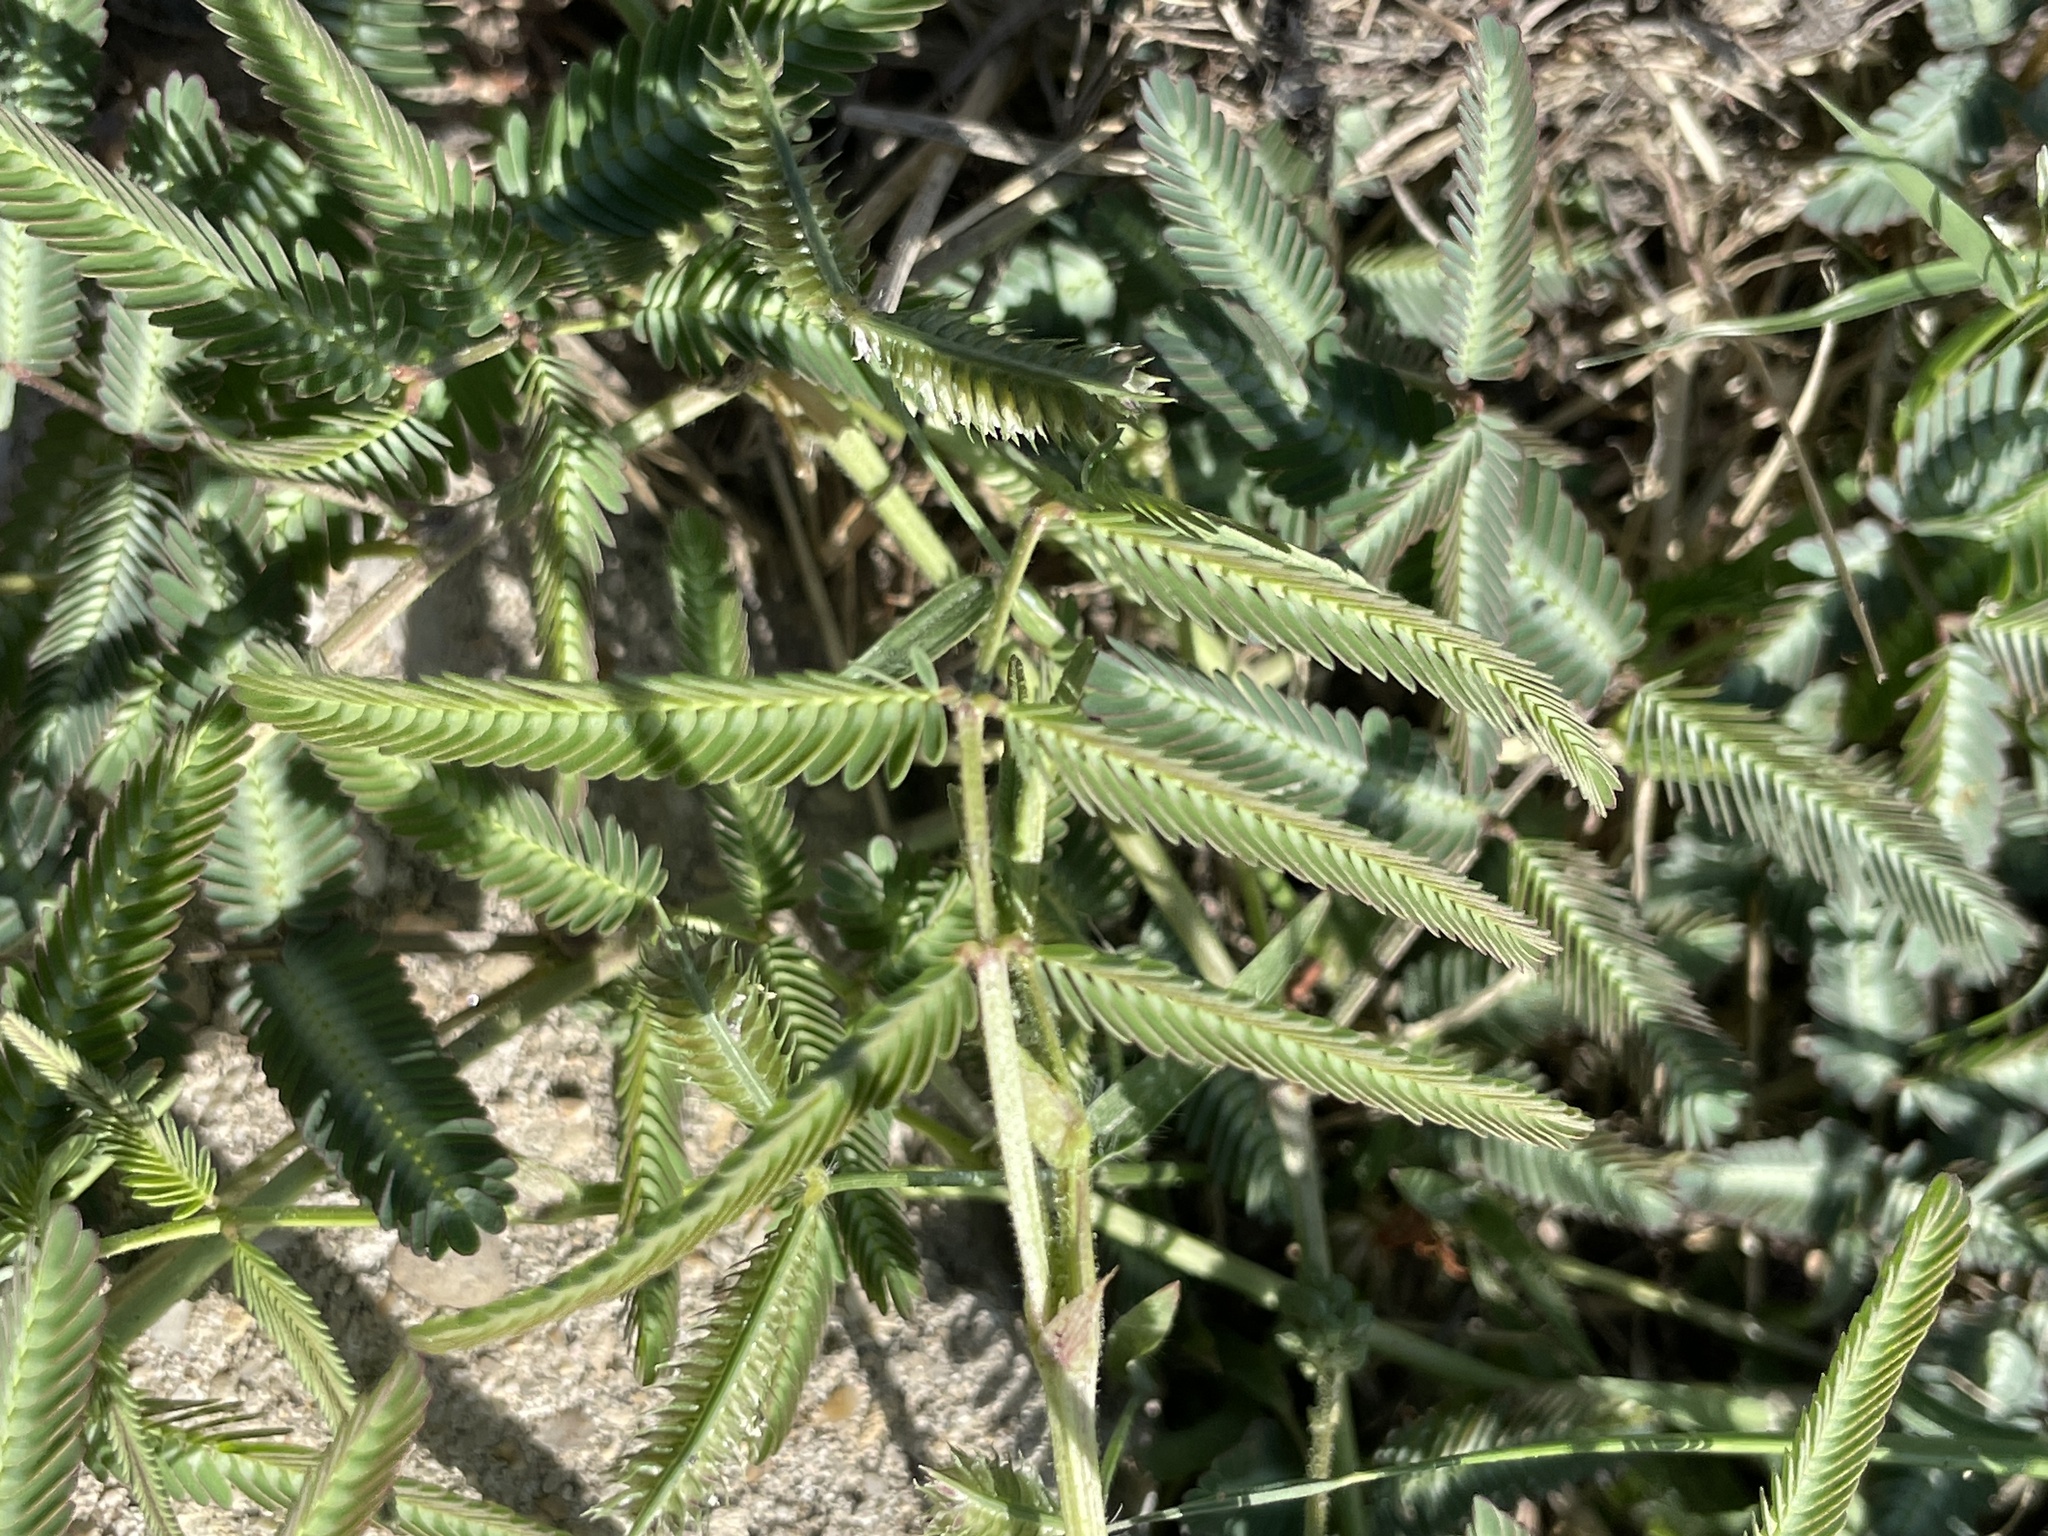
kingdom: Plantae
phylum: Tracheophyta
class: Magnoliopsida
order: Fabales
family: Fabaceae
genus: Neptunia
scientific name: Neptunia pubescens
